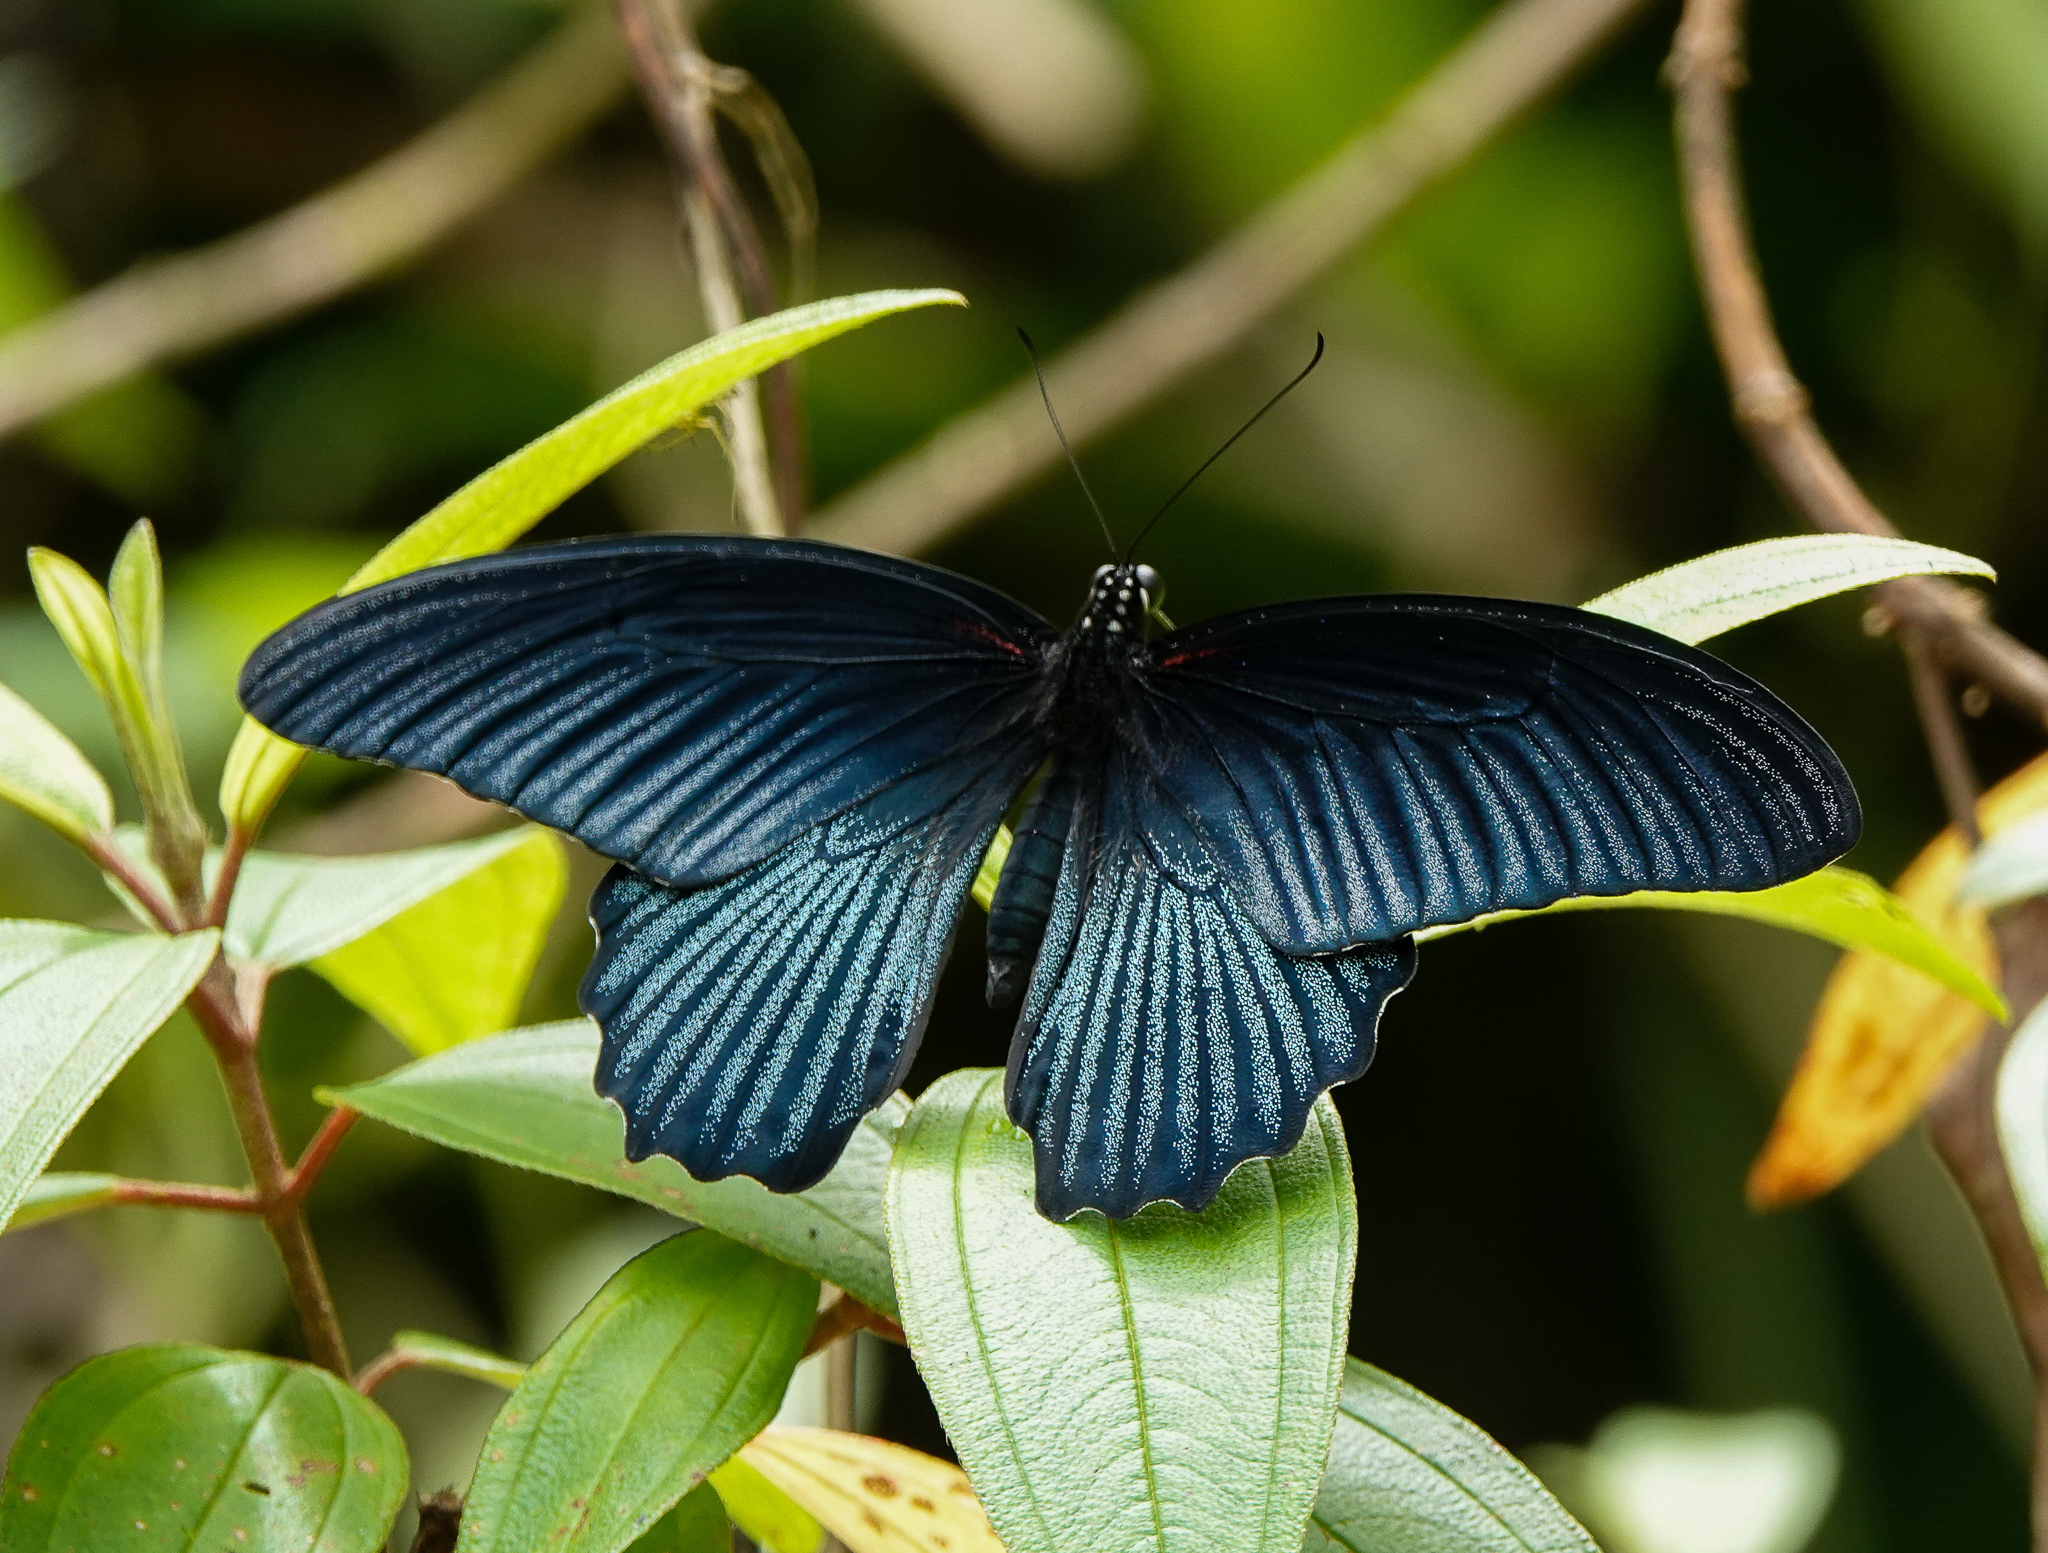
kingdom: Animalia
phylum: Arthropoda
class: Insecta
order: Lepidoptera
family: Papilionidae
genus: Papilio
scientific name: Papilio memnon
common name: Great mormon
